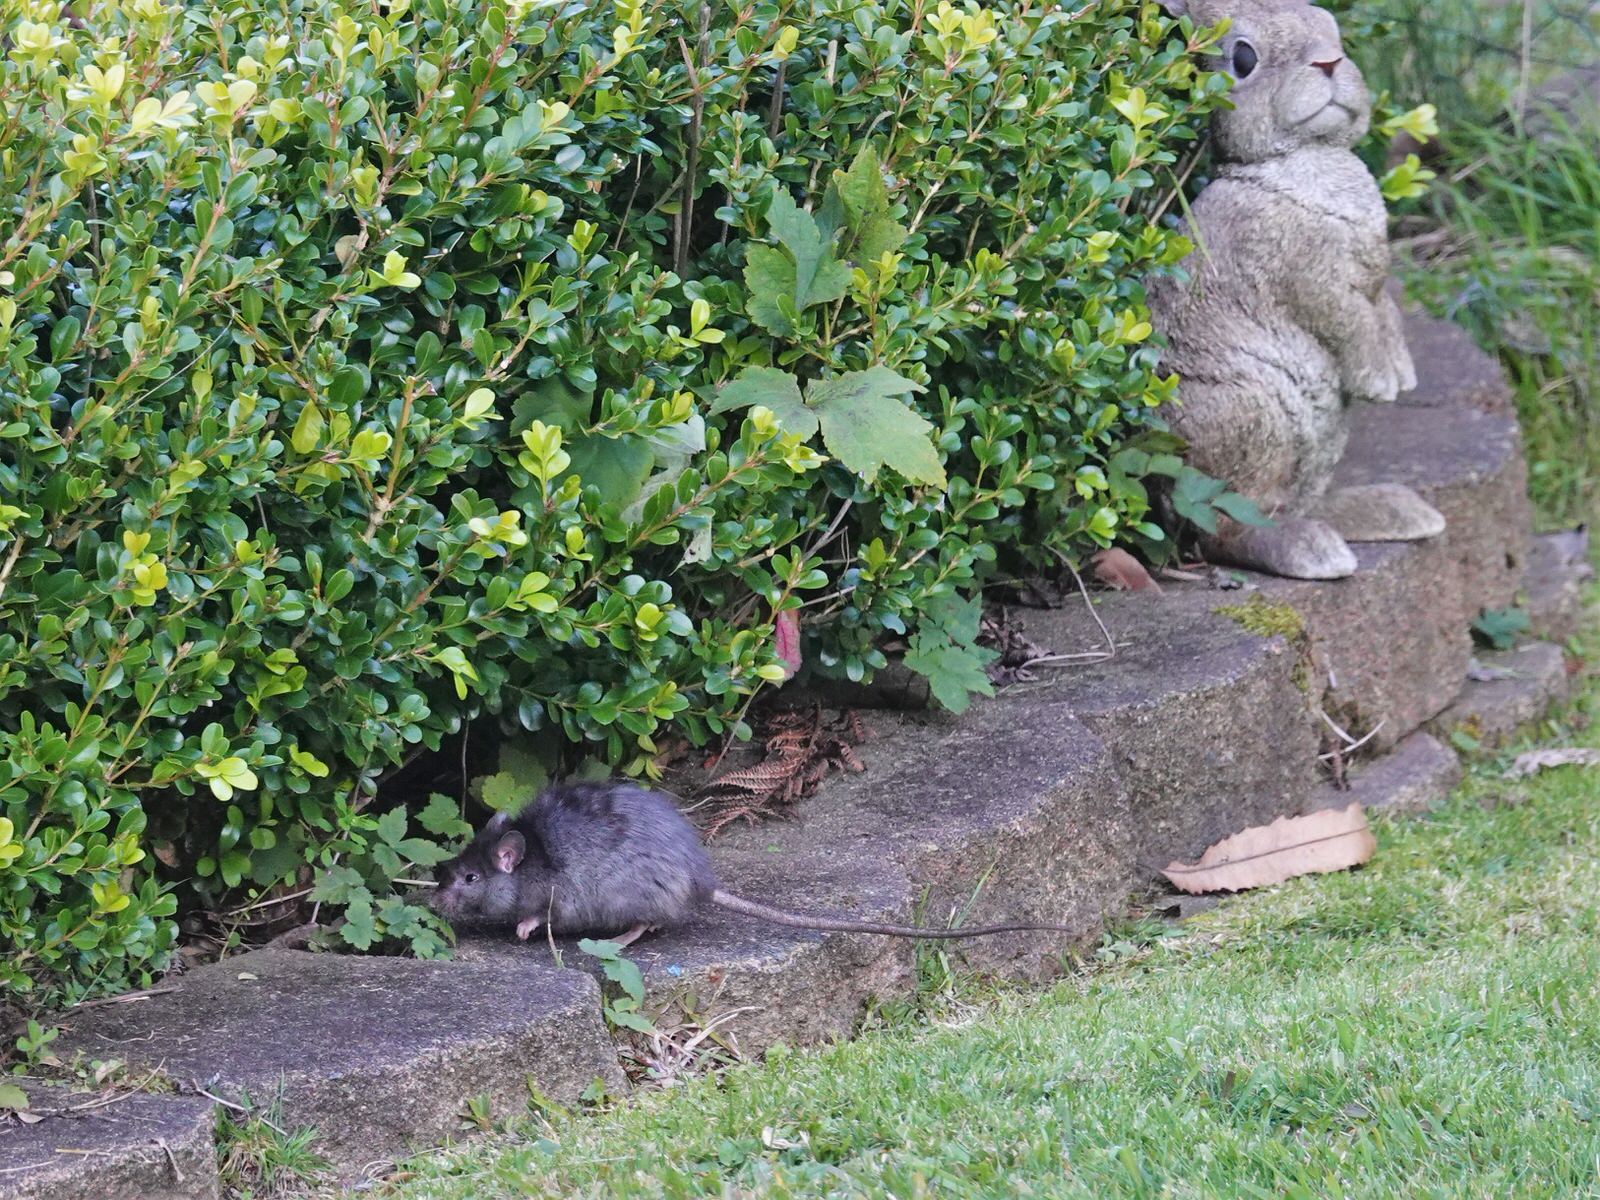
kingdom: Animalia
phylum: Chordata
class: Mammalia
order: Rodentia
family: Muridae
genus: Rattus
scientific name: Rattus rattus
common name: Black rat
